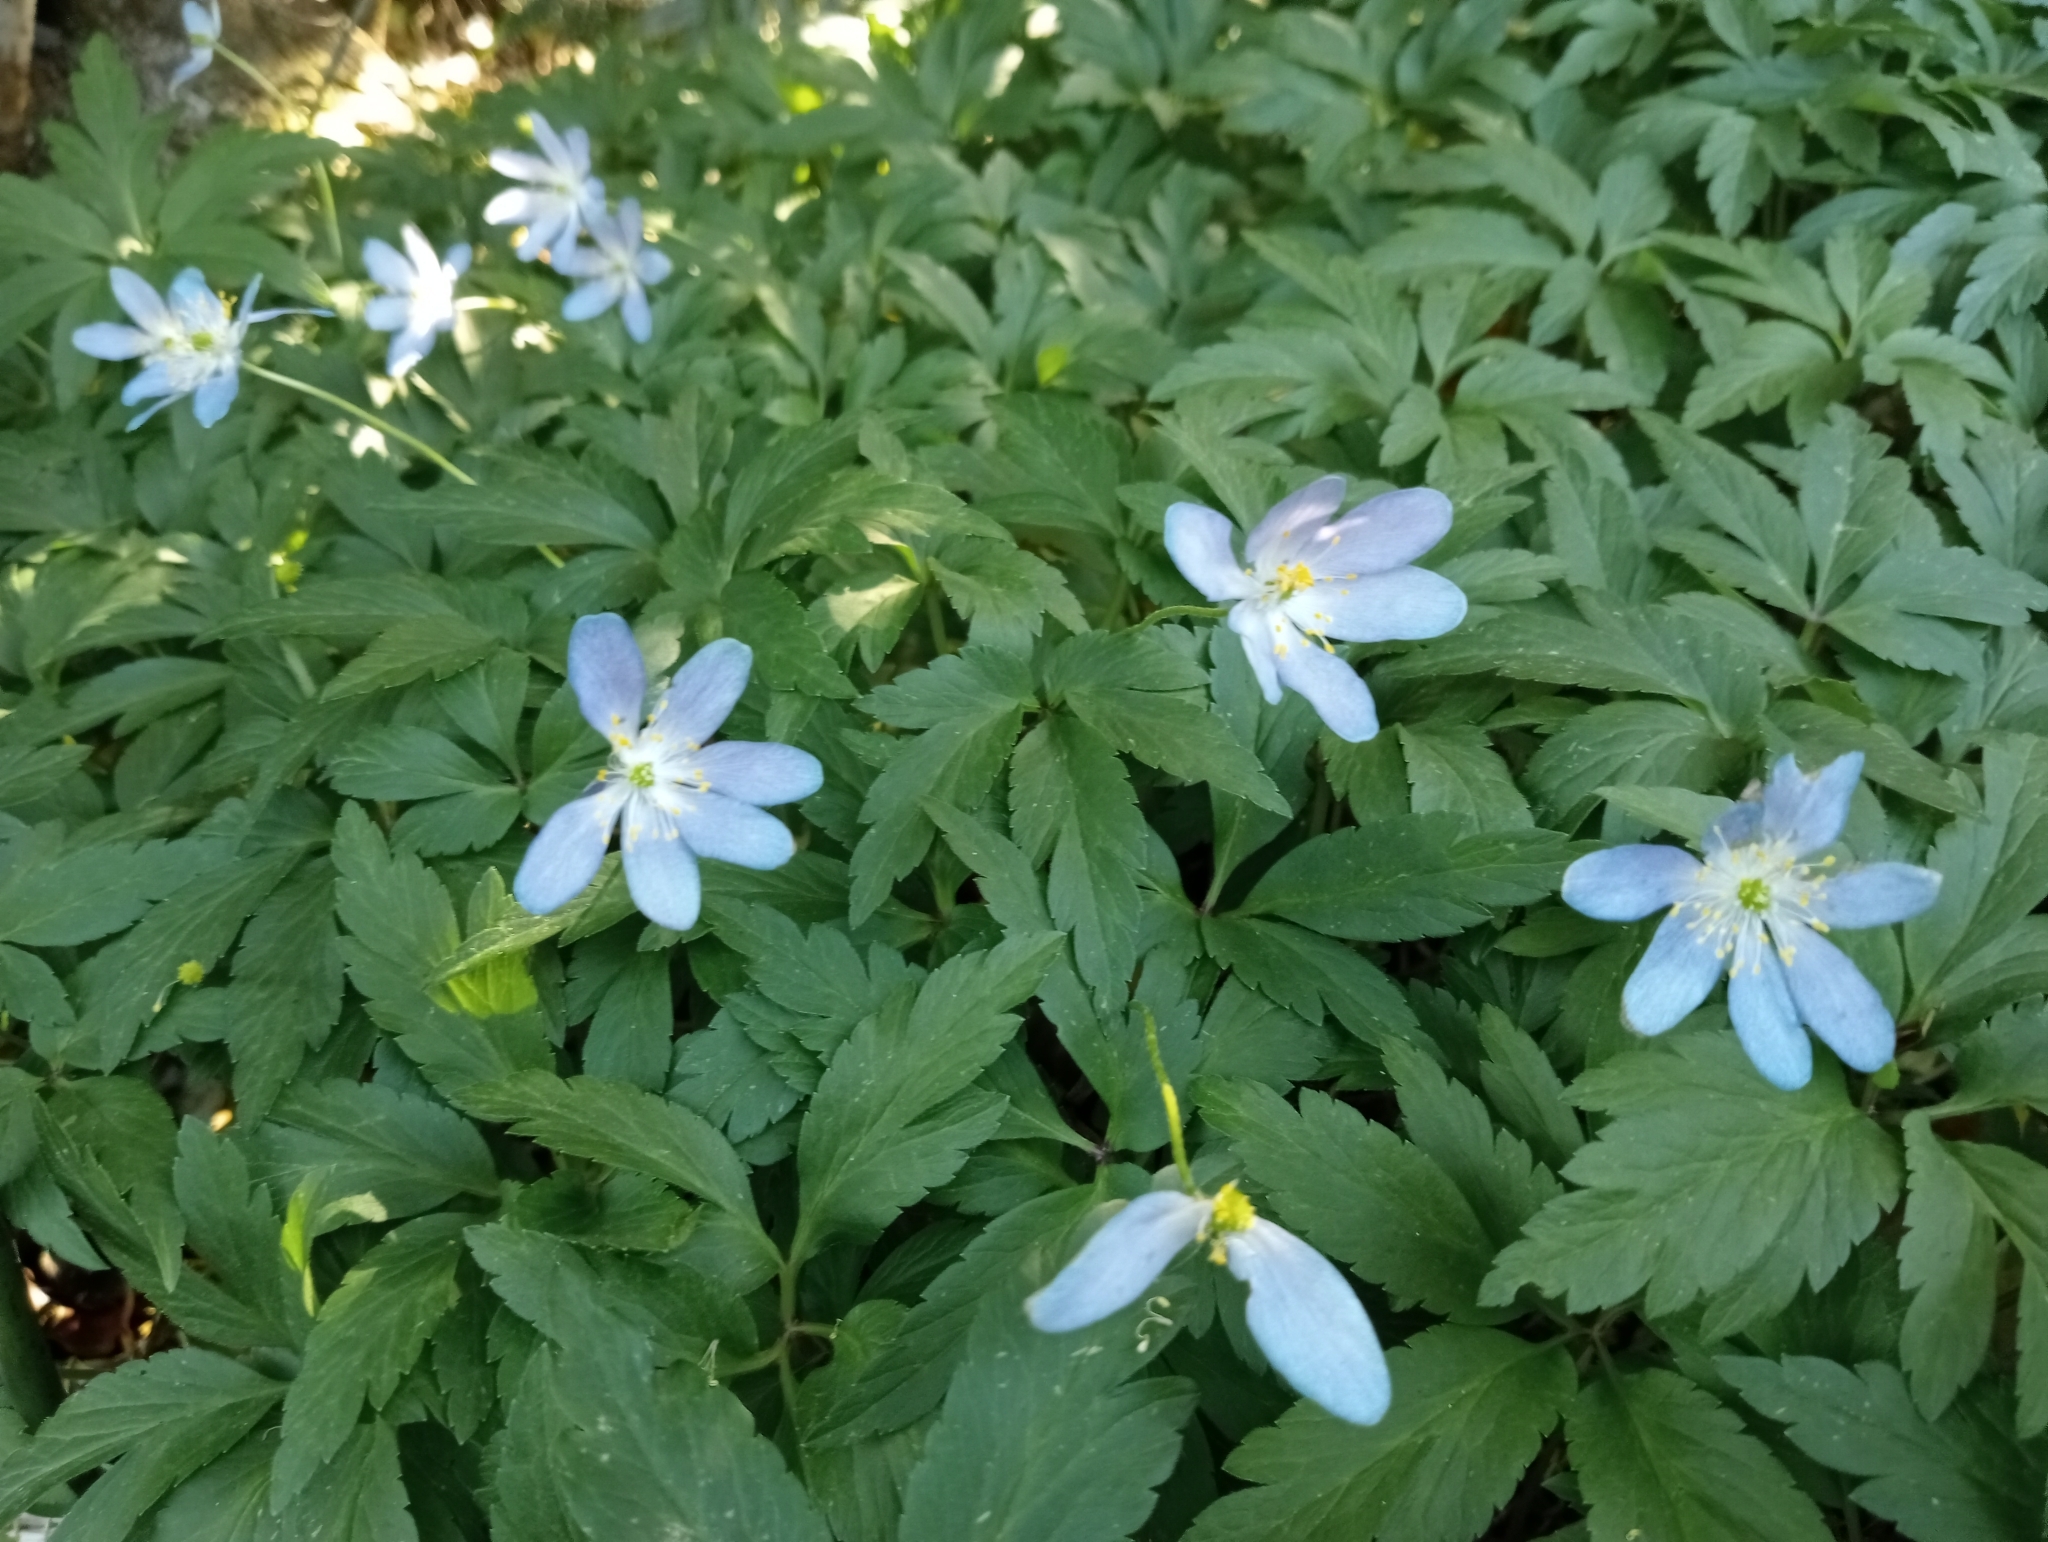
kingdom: Plantae
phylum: Tracheophyta
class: Magnoliopsida
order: Ranunculales
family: Ranunculaceae
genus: Anemone
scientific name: Anemone nemorosa
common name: Wood anemone
